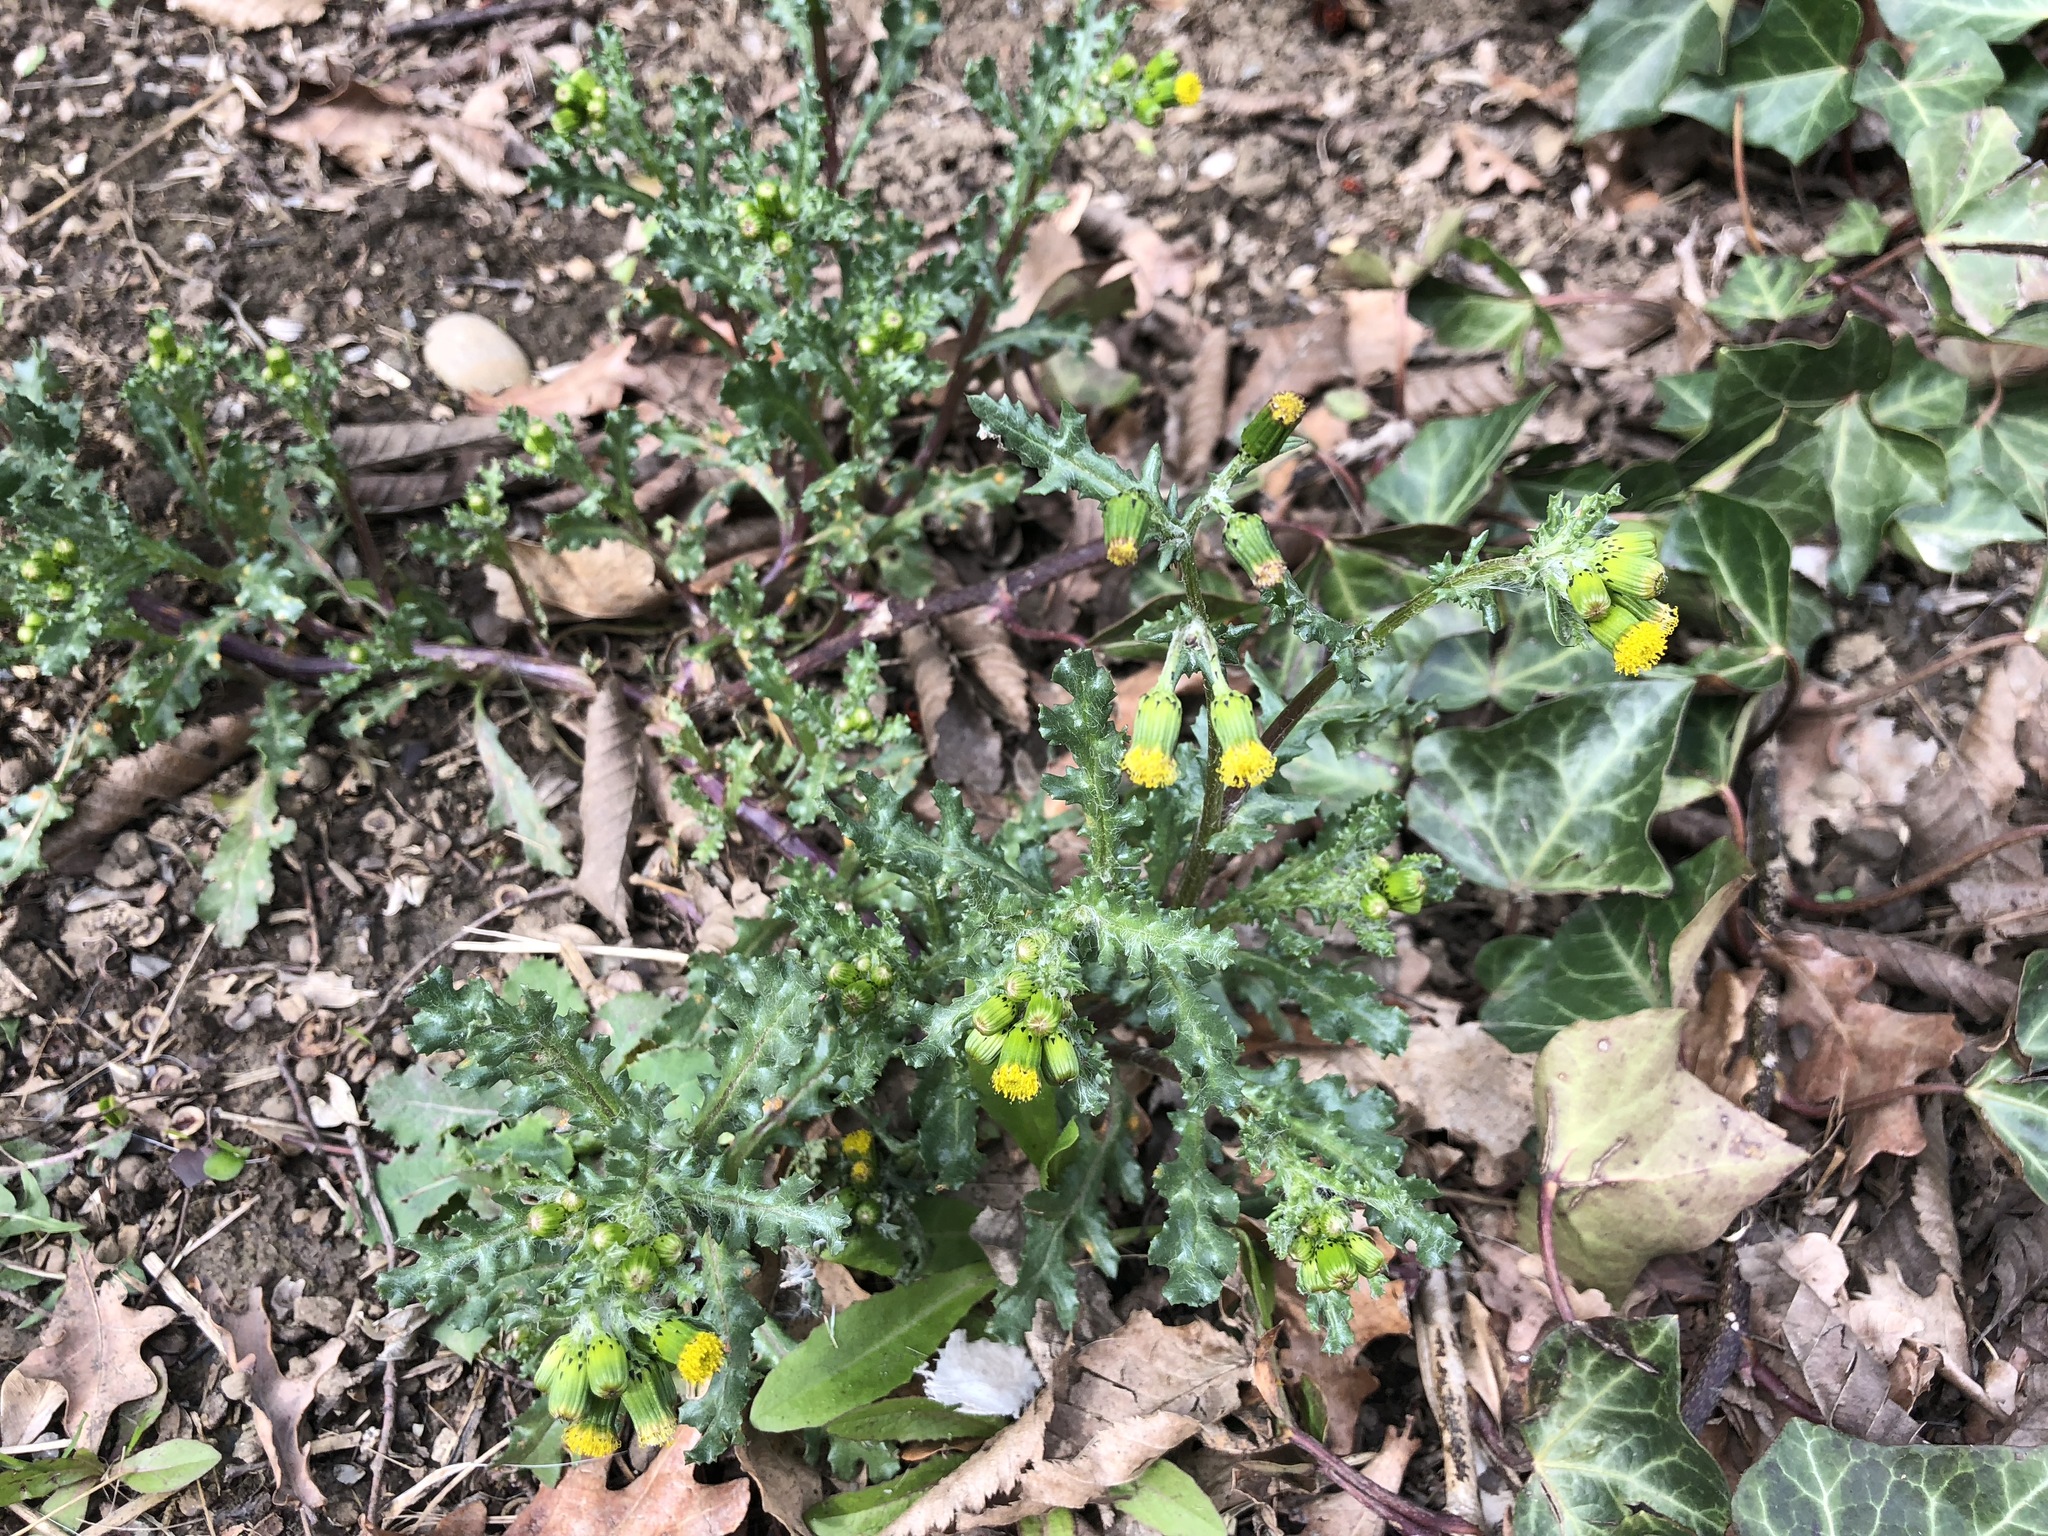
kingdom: Plantae
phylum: Tracheophyta
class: Magnoliopsida
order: Asterales
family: Asteraceae
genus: Senecio
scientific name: Senecio vulgaris
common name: Old-man-in-the-spring
